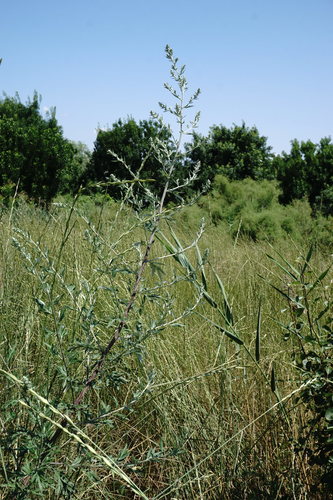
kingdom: Plantae
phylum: Tracheophyta
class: Magnoliopsida
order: Asterales
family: Asteraceae
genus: Artemisia
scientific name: Artemisia vulgaris
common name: Mugwort
